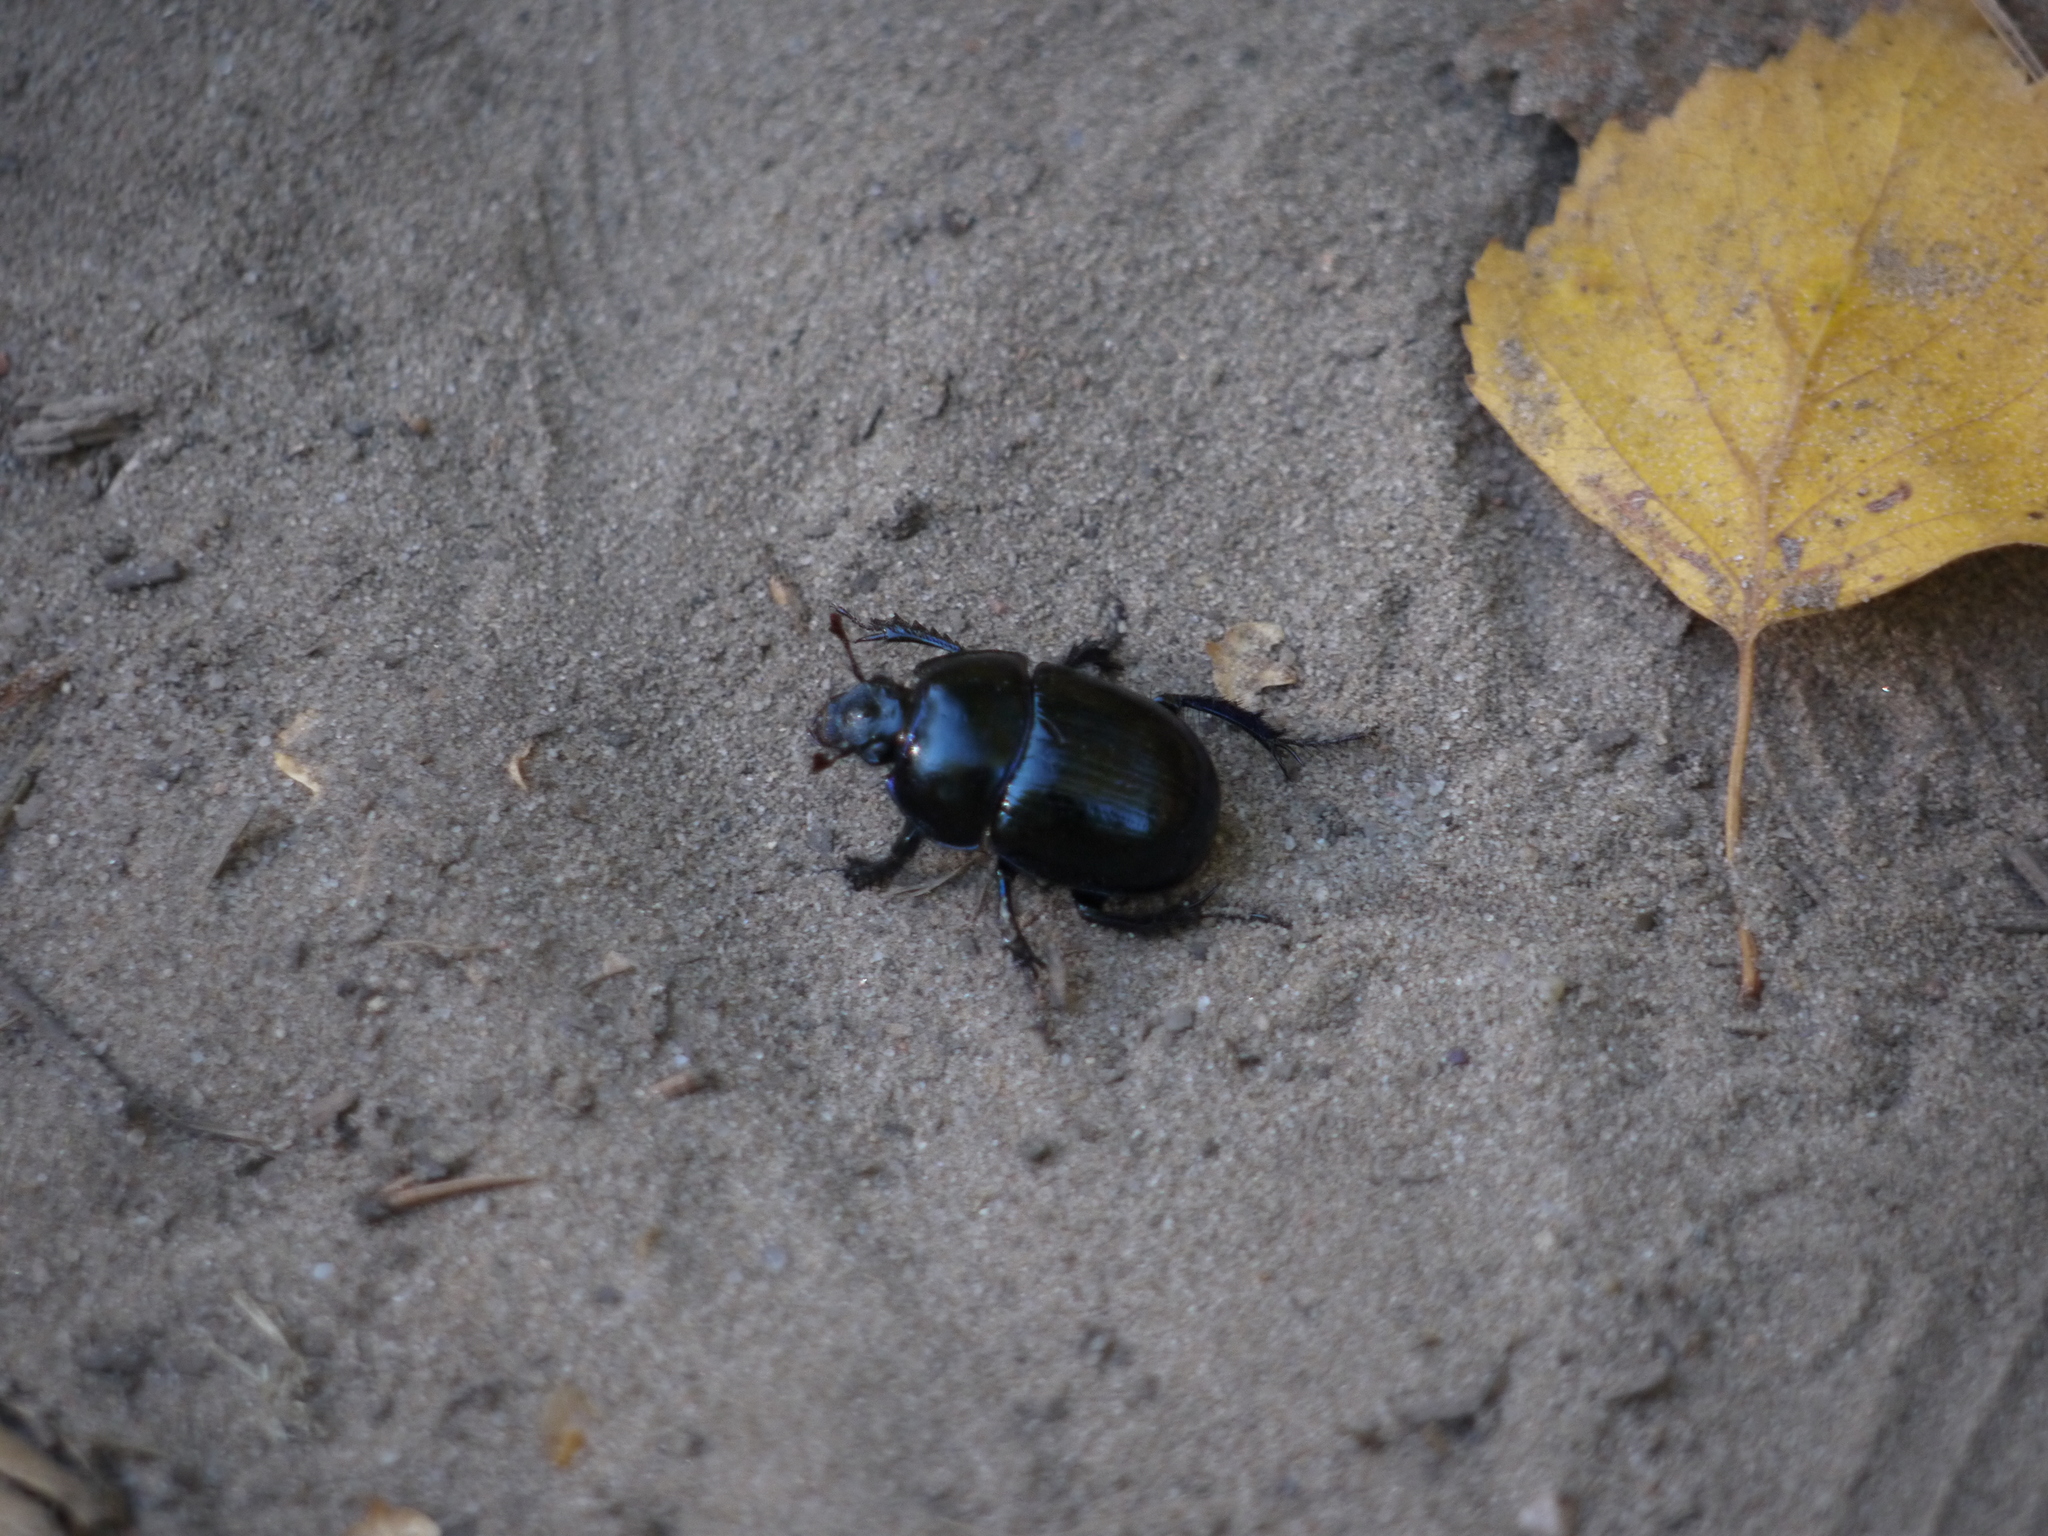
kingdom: Animalia
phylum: Arthropoda
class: Insecta
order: Coleoptera
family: Geotrupidae
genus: Anoplotrupes
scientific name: Anoplotrupes stercorosus
